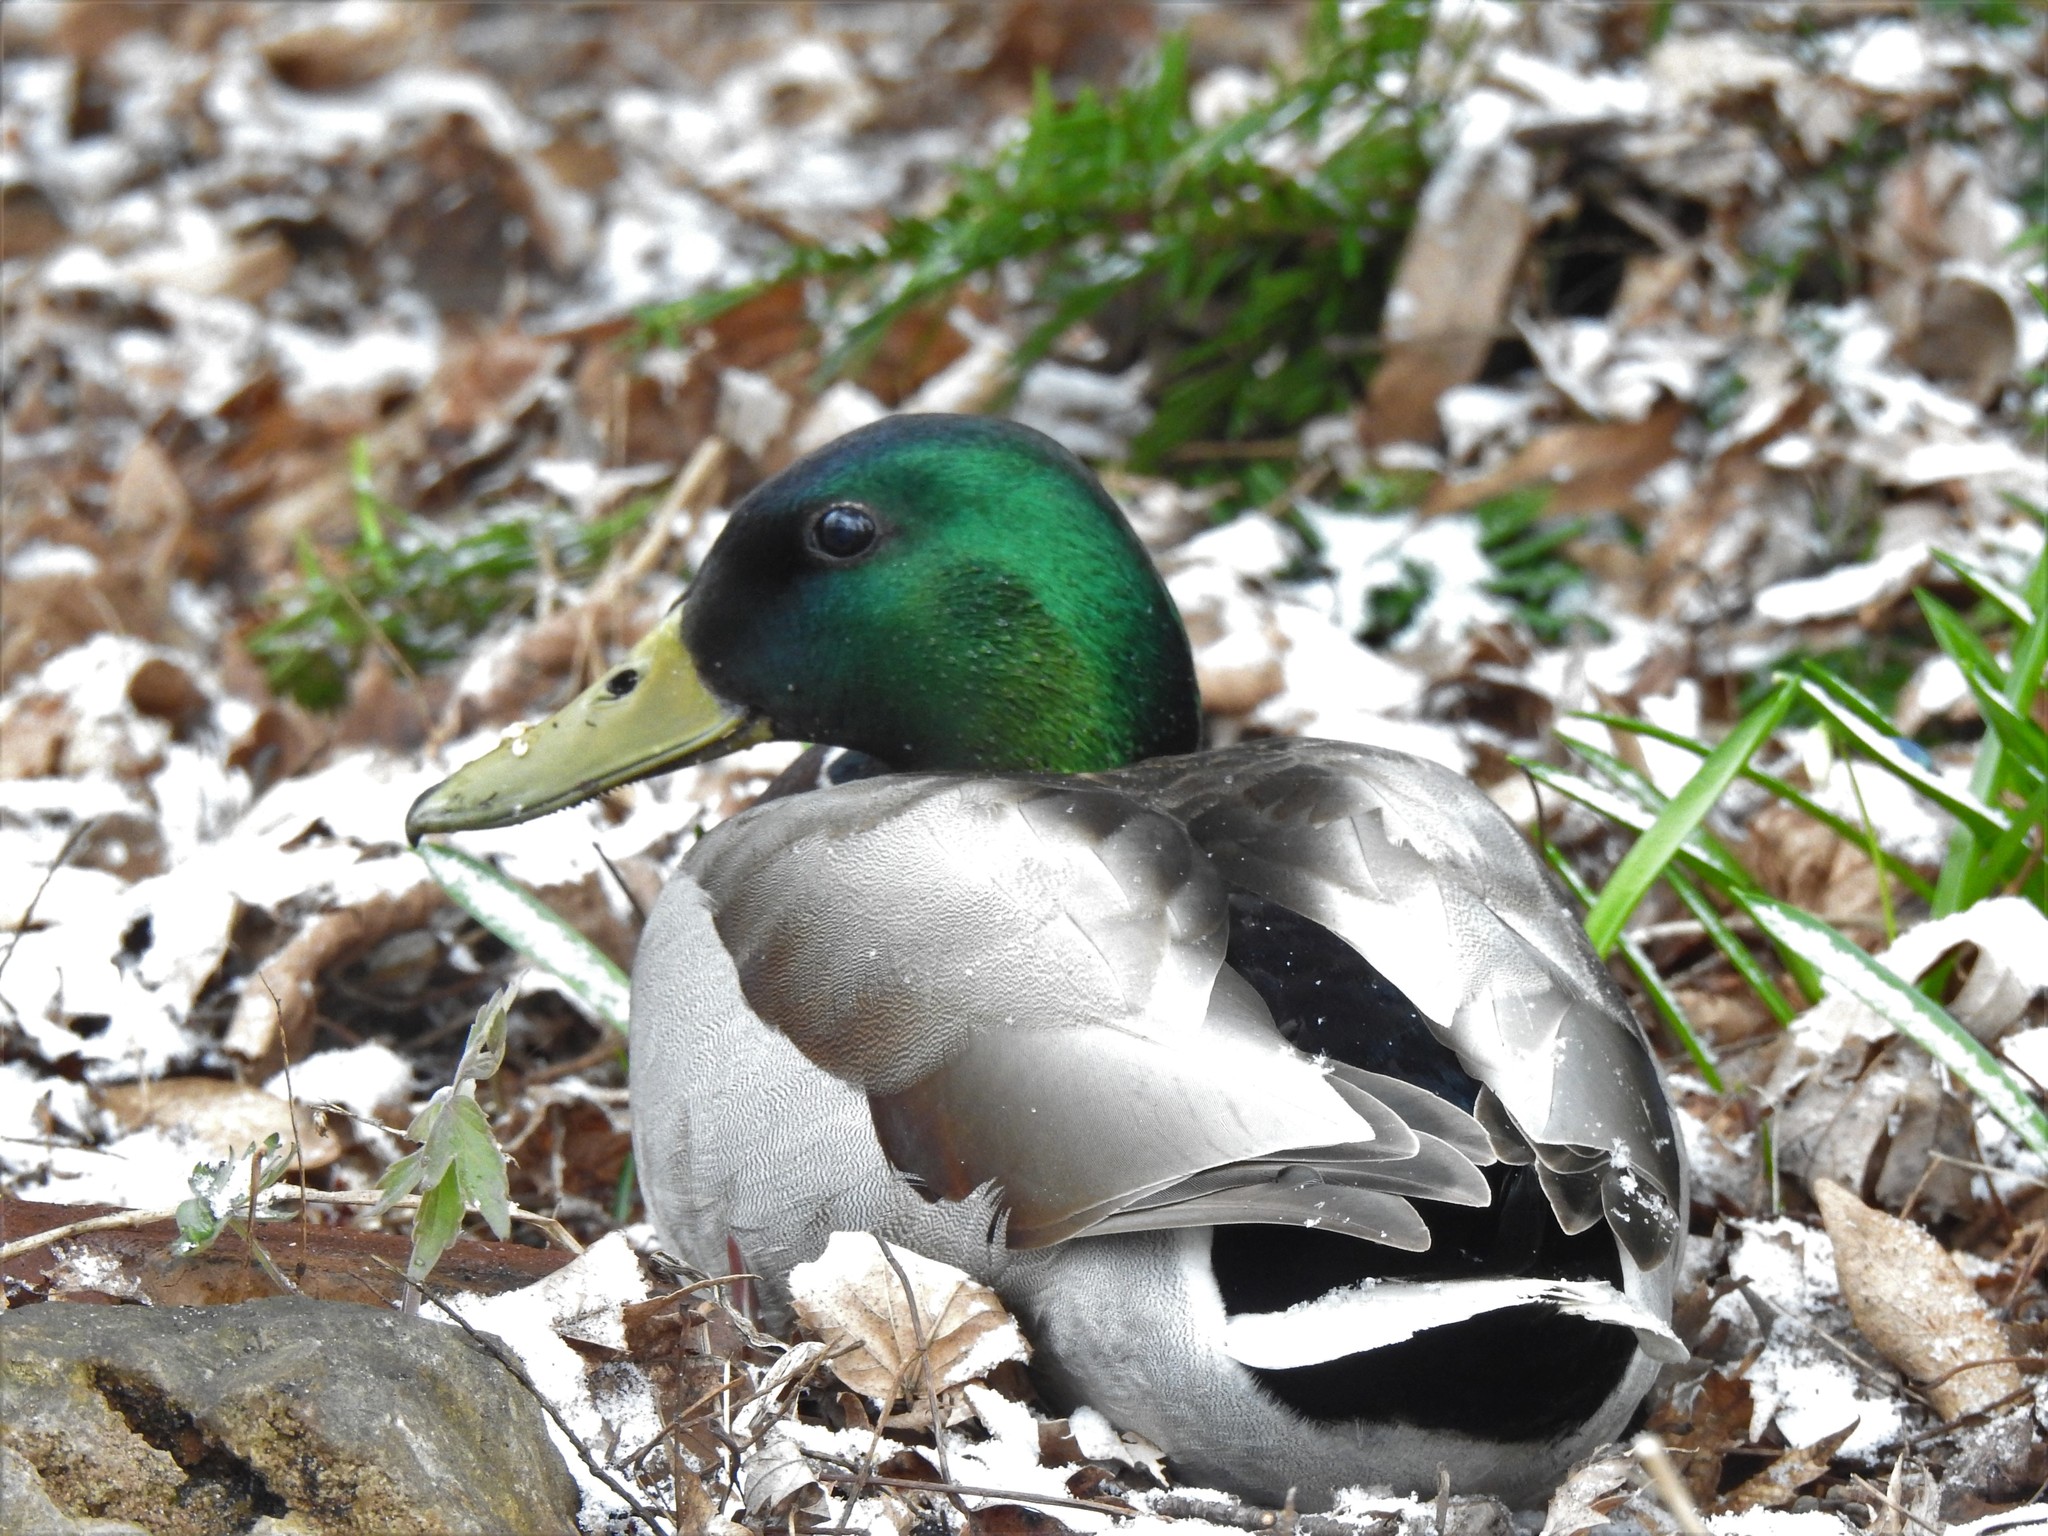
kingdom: Animalia
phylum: Chordata
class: Aves
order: Anseriformes
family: Anatidae
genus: Anas
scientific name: Anas platyrhynchos
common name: Mallard
